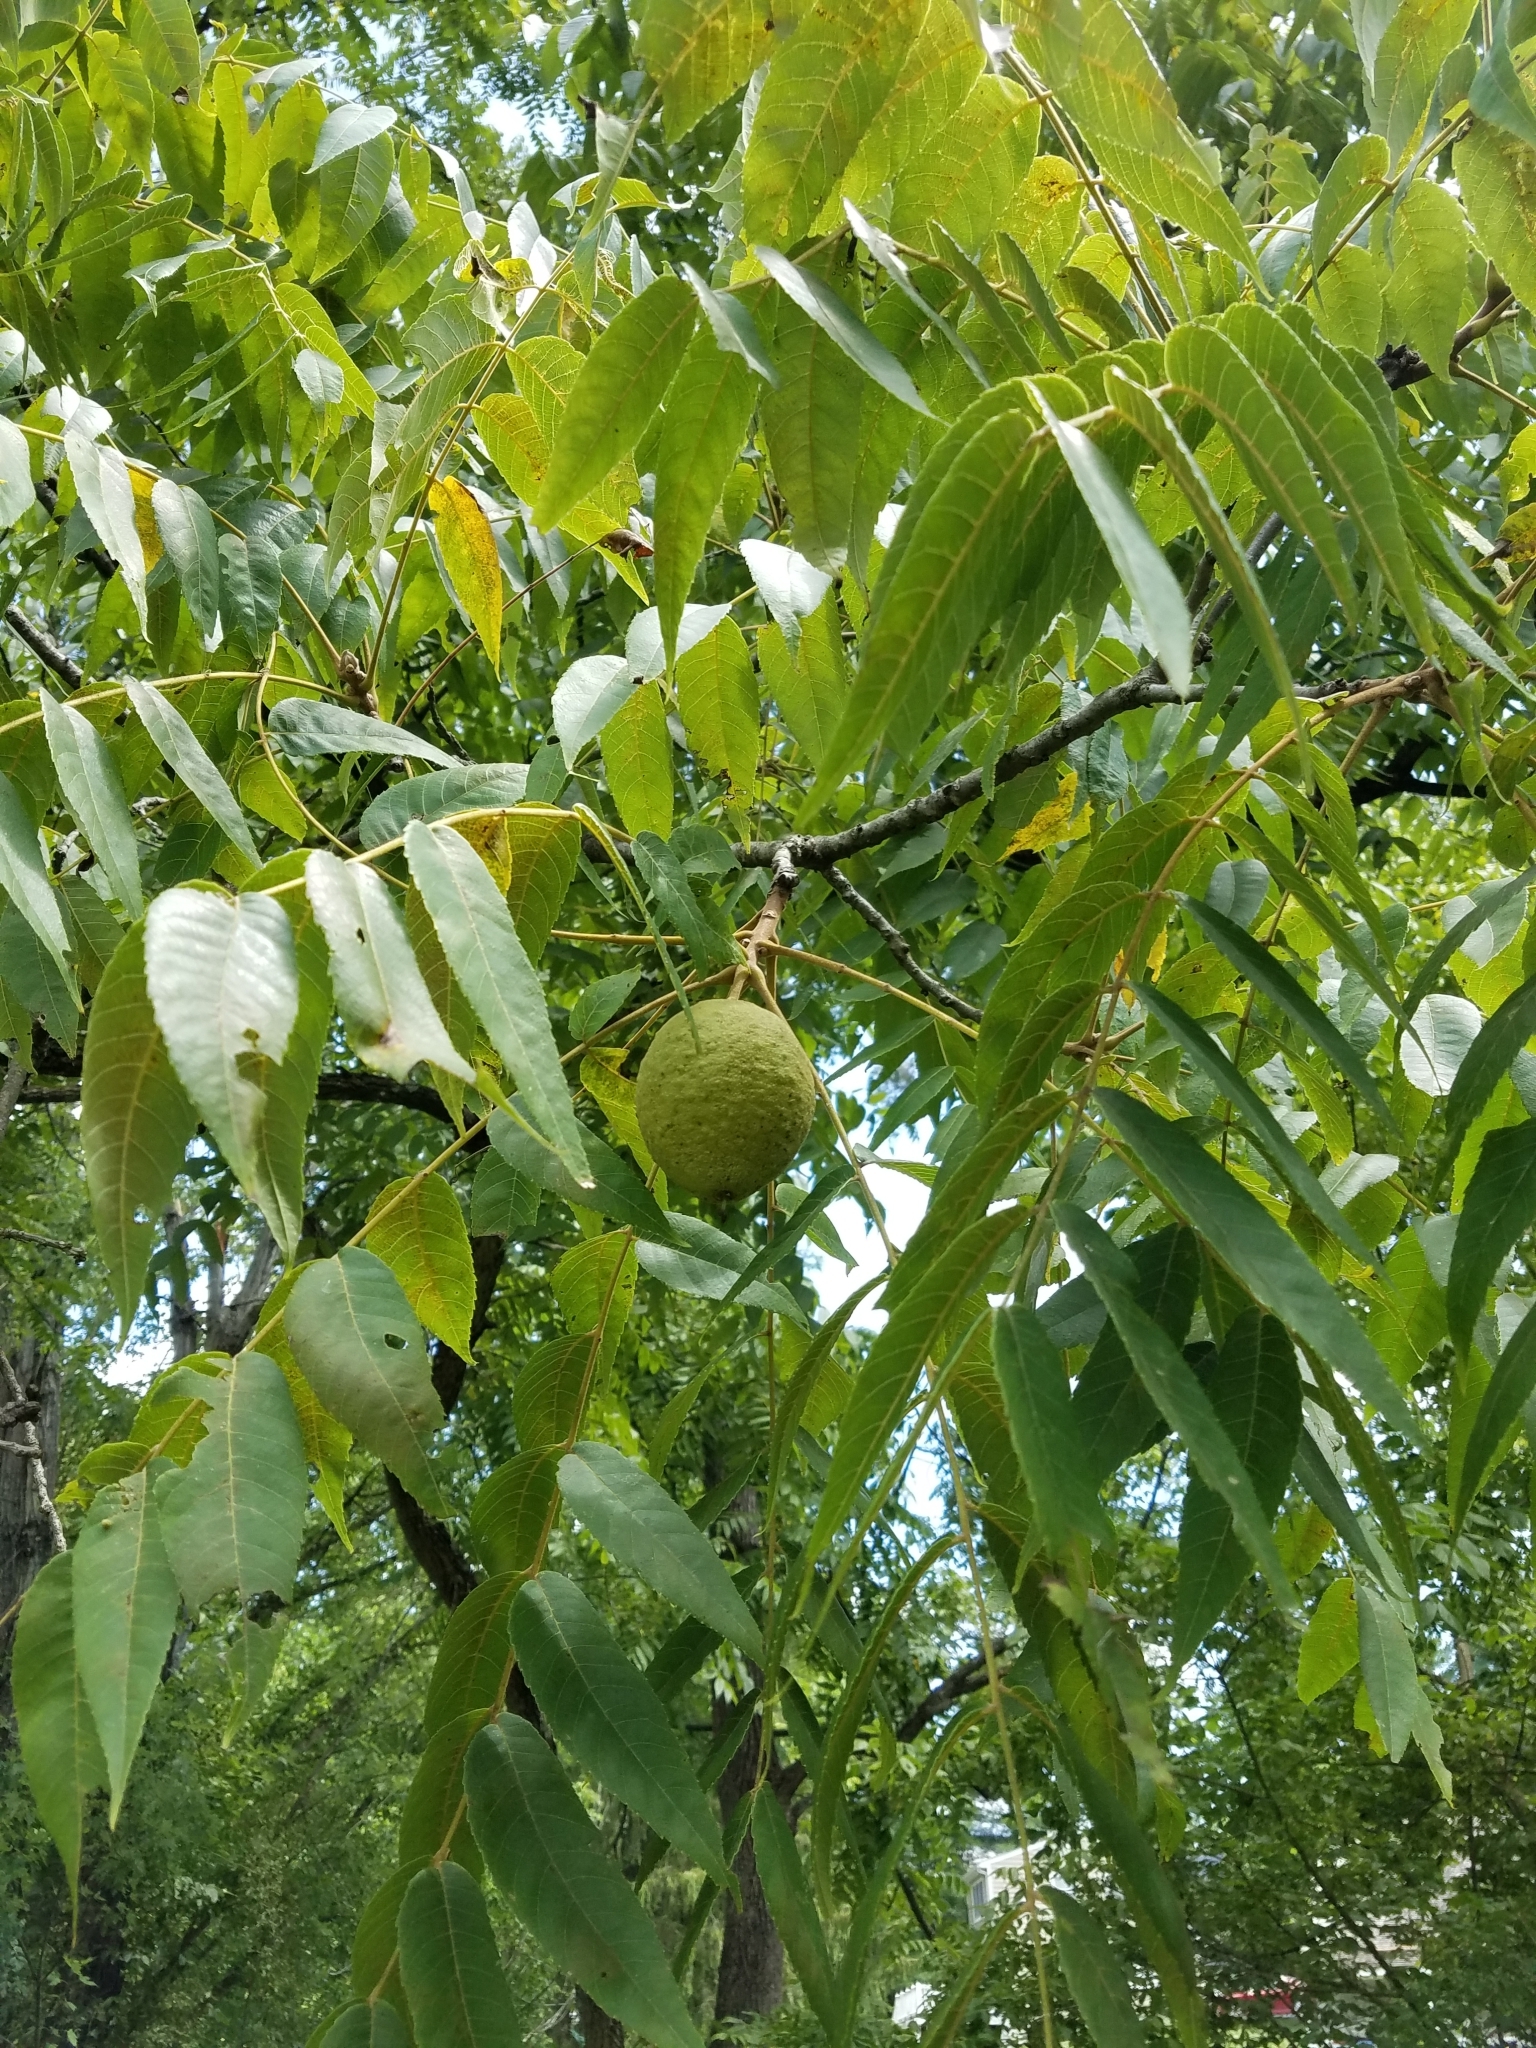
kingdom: Plantae
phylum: Tracheophyta
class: Magnoliopsida
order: Fagales
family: Juglandaceae
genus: Juglans
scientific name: Juglans nigra
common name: Black walnut
